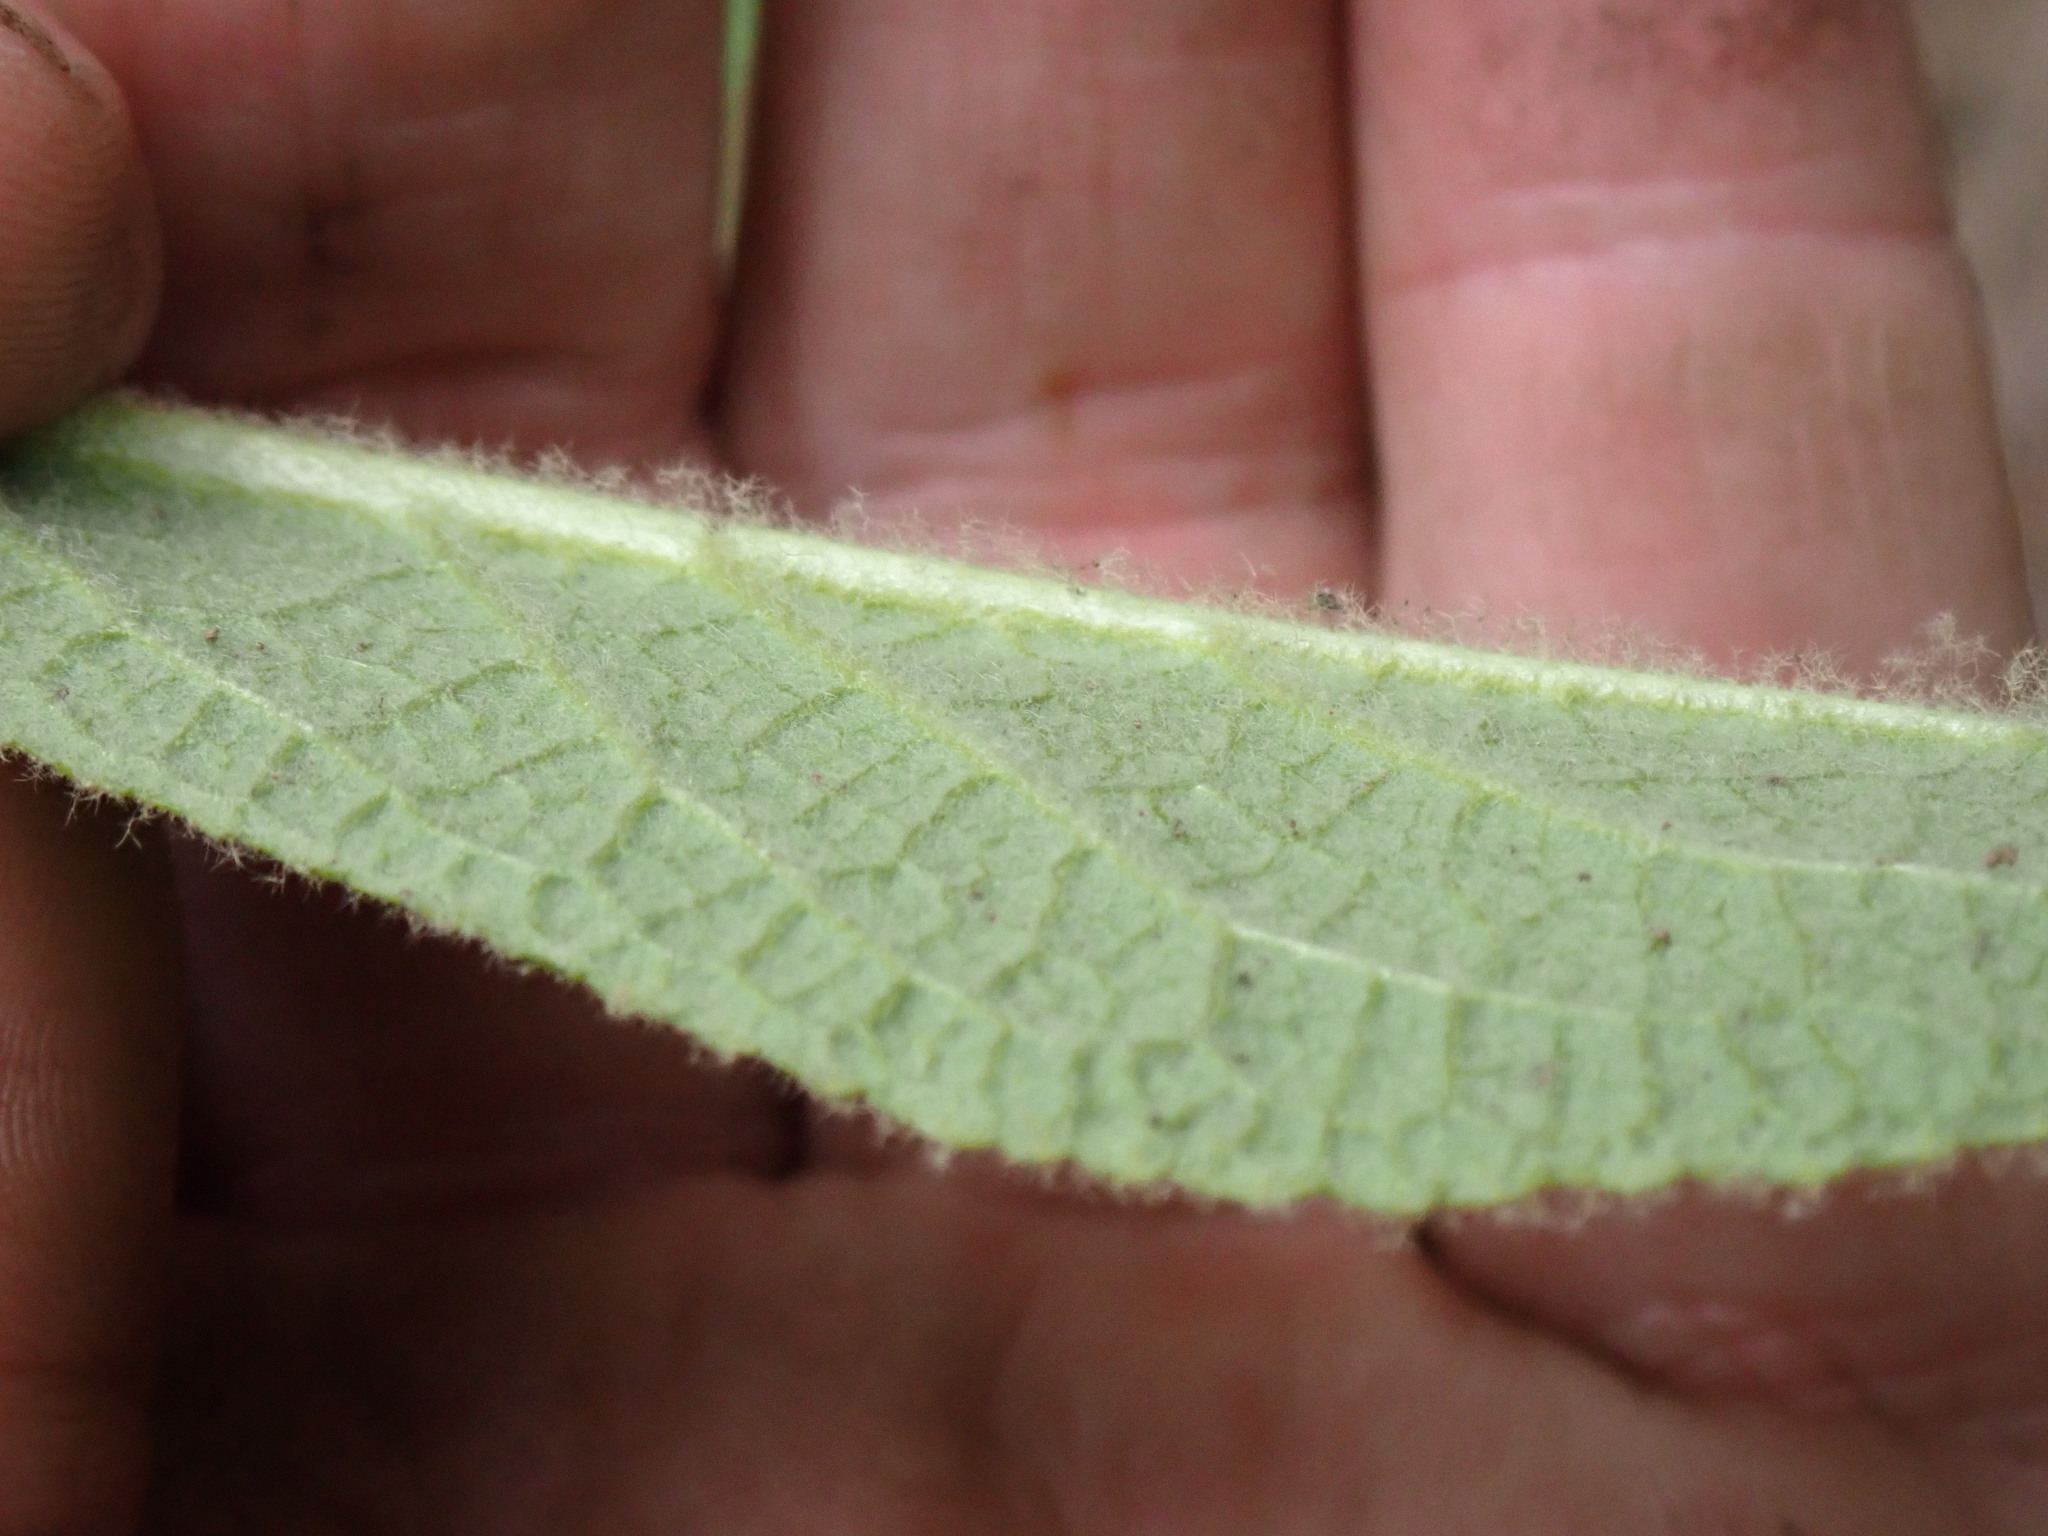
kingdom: Plantae
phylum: Tracheophyta
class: Magnoliopsida
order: Lamiales
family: Scrophulariaceae
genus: Verbascum
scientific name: Verbascum thapsus
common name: Common mullein
